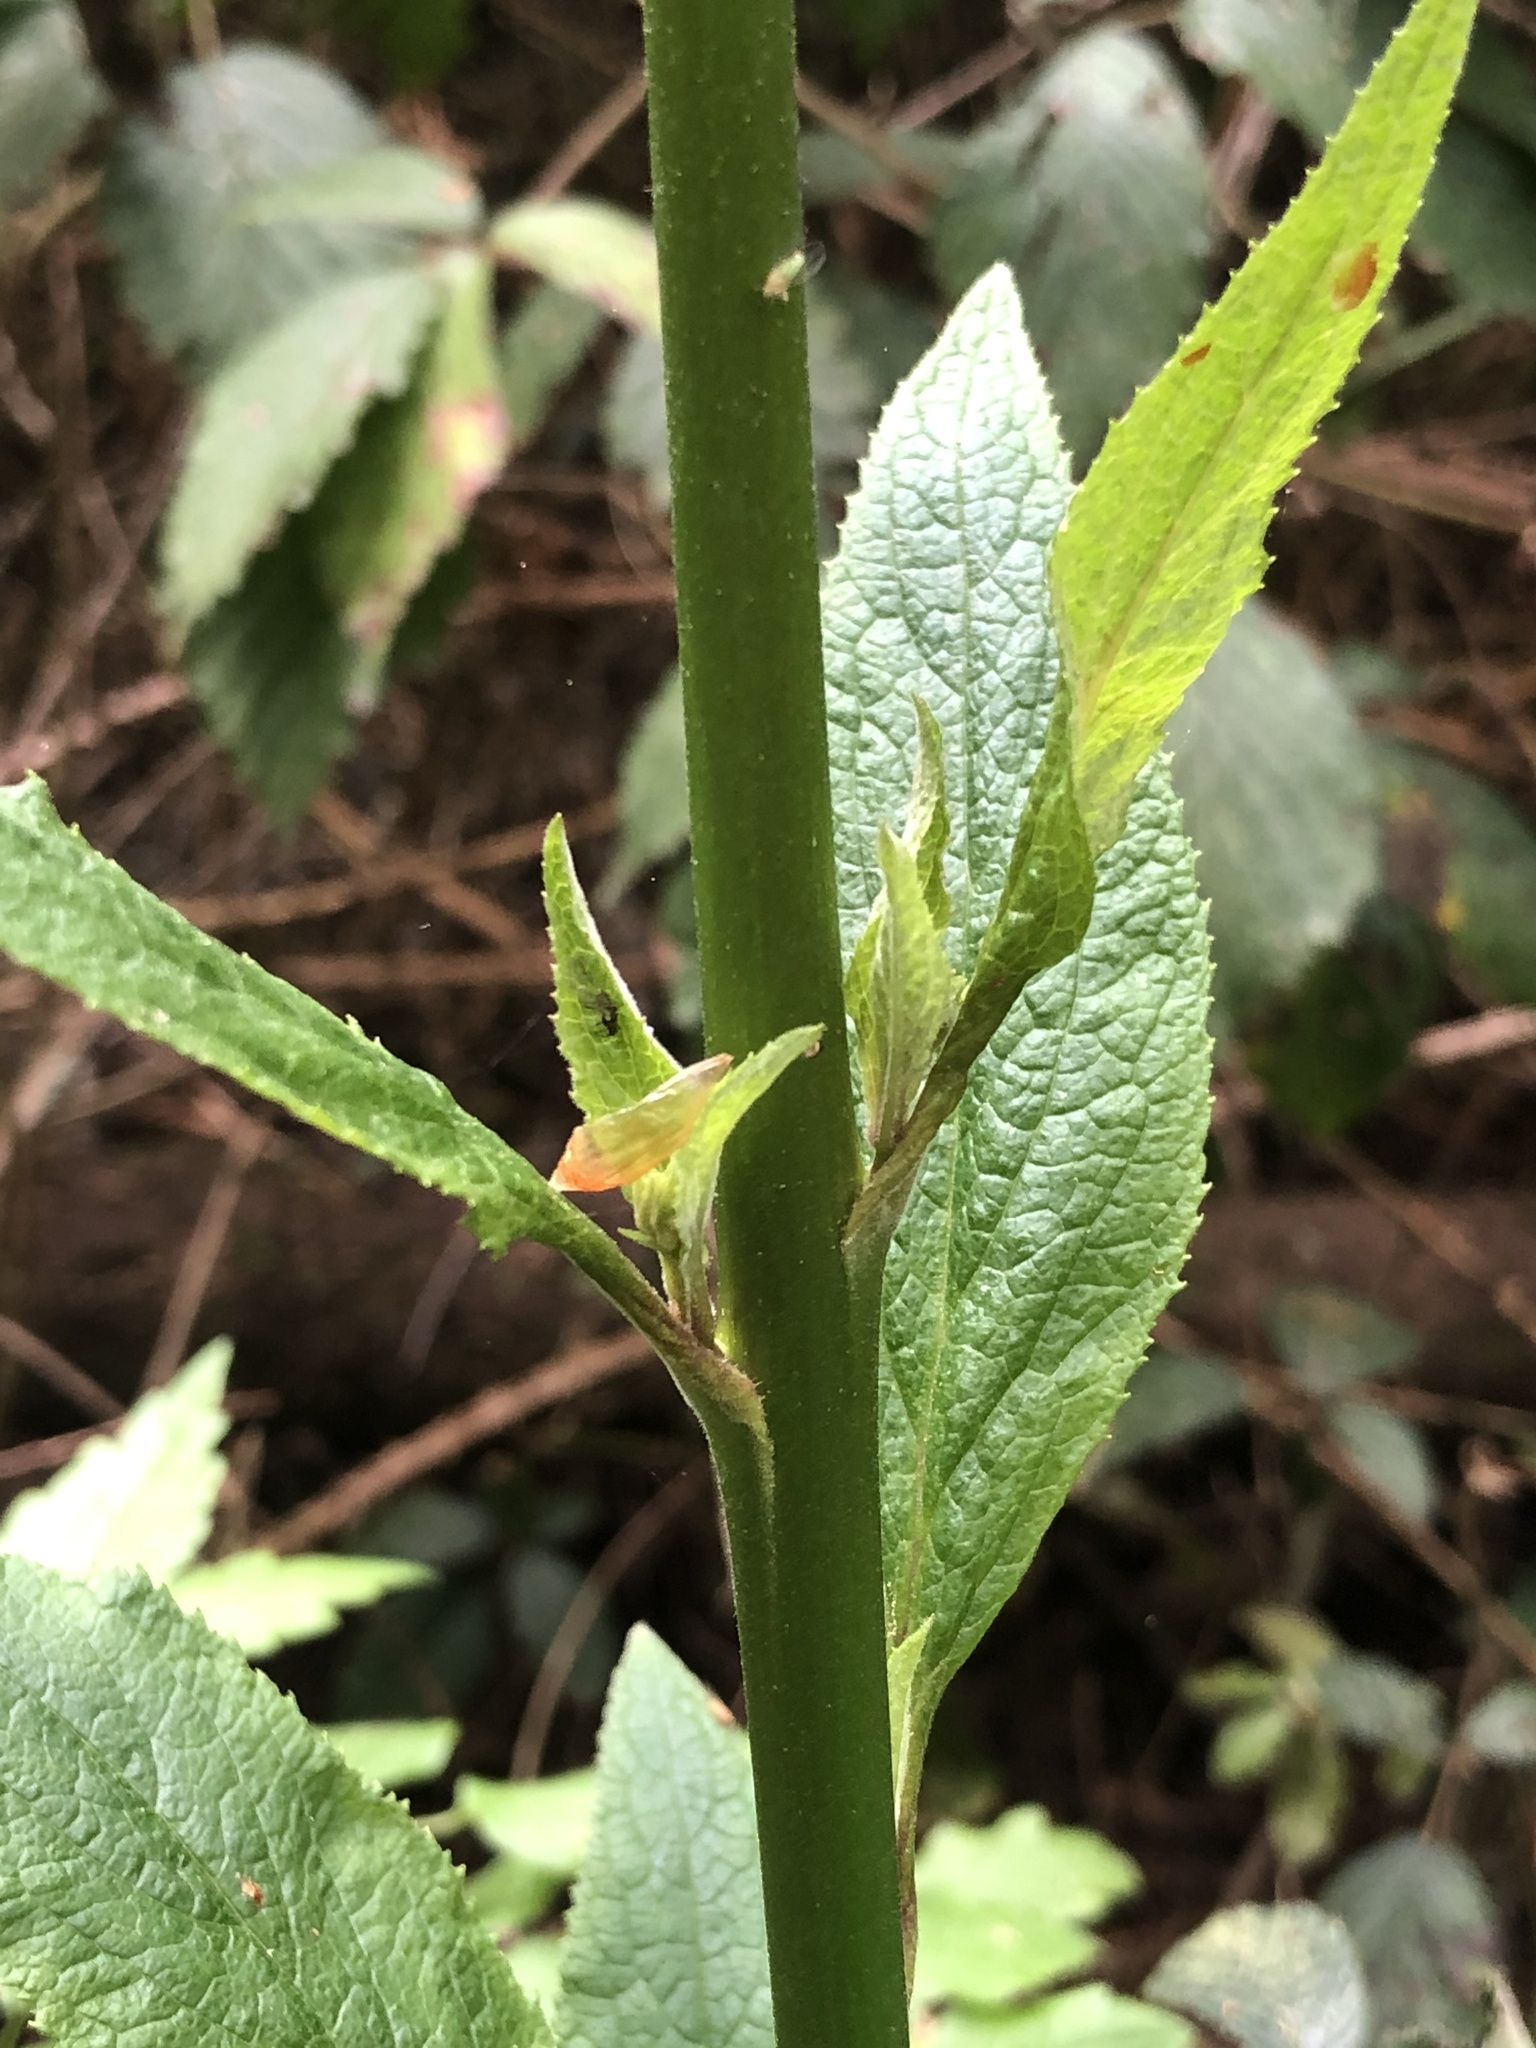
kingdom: Plantae
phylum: Tracheophyta
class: Magnoliopsida
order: Lamiales
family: Plantaginaceae
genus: Digitalis
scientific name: Digitalis purpurea
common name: Foxglove
